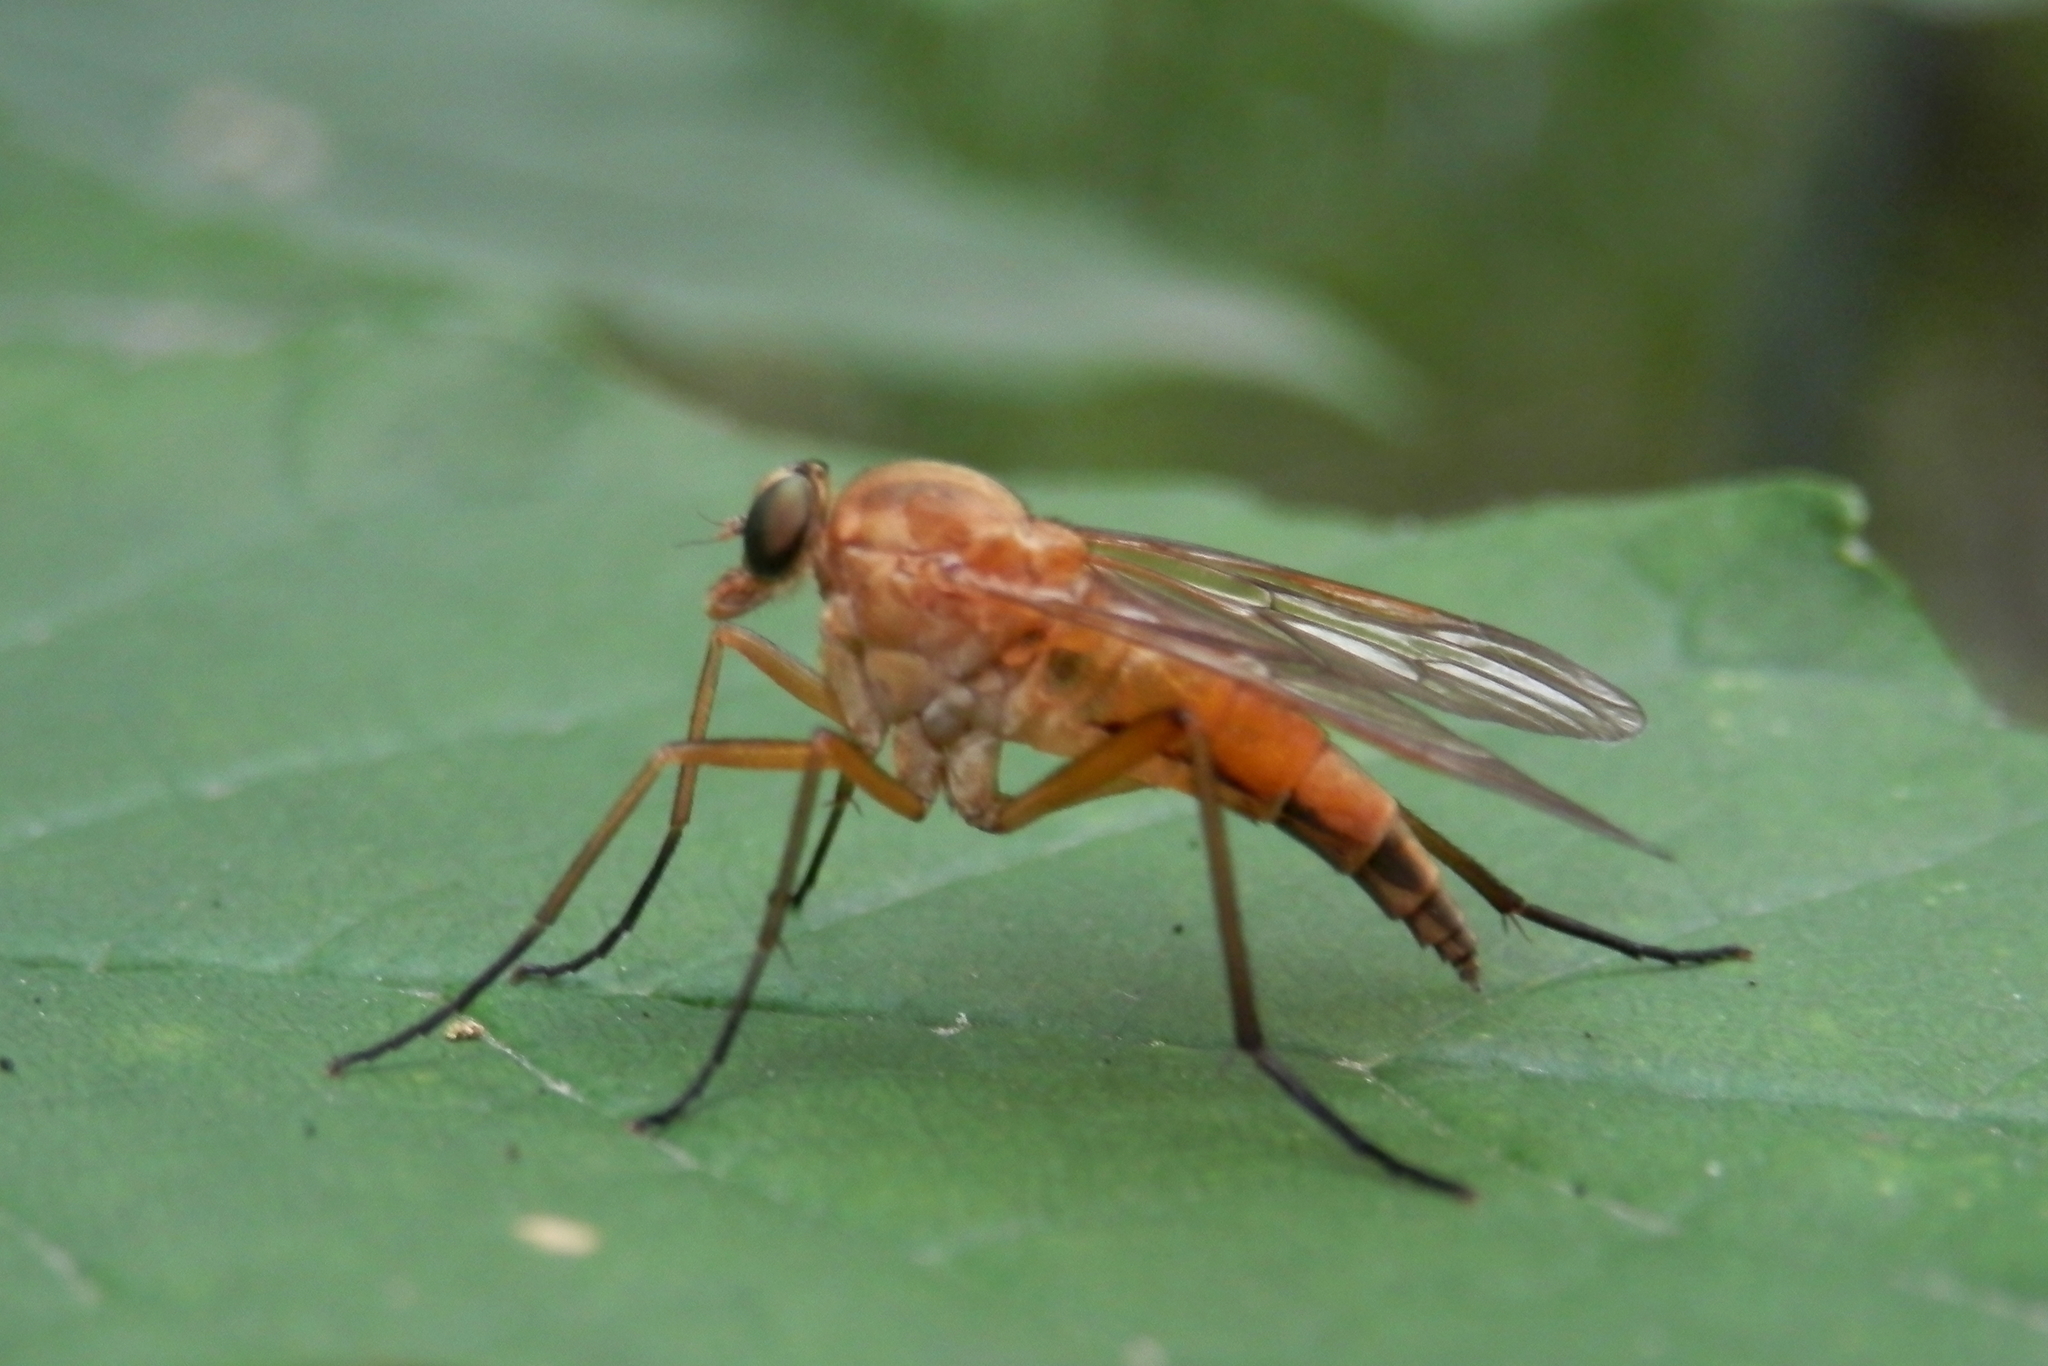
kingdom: Animalia
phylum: Arthropoda
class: Insecta
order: Diptera
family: Rhagionidae
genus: Rhagio
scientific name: Rhagio tringaria
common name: Marsh snipefly
